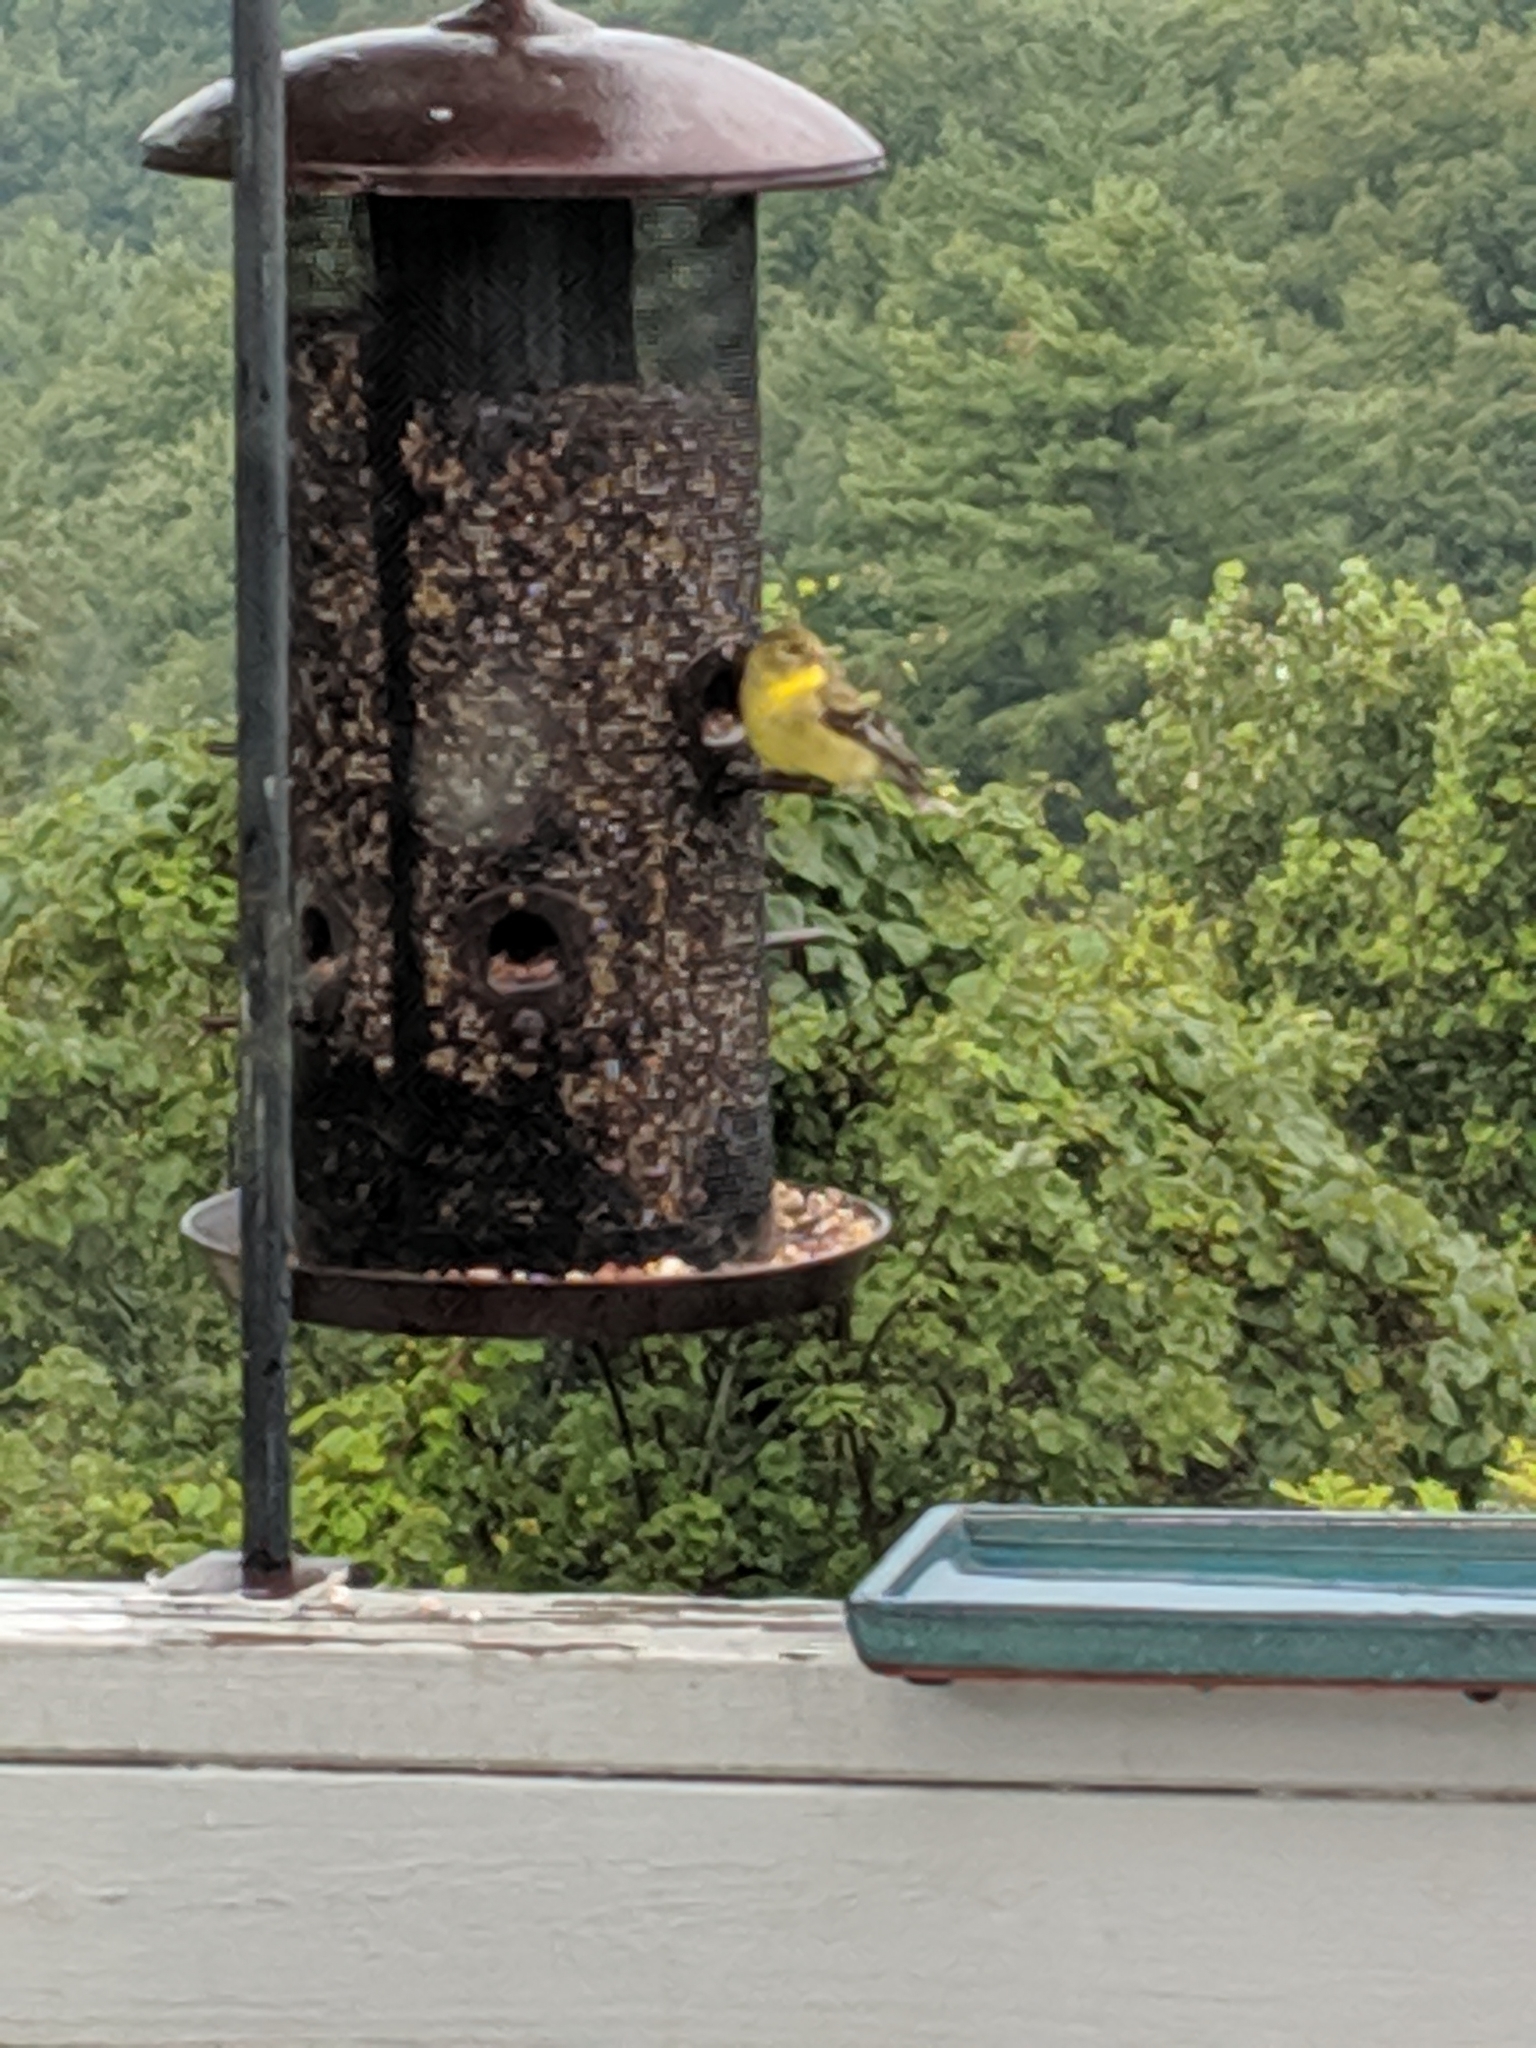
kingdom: Animalia
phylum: Chordata
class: Aves
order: Passeriformes
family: Fringillidae
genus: Spinus
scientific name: Spinus tristis
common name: American goldfinch
